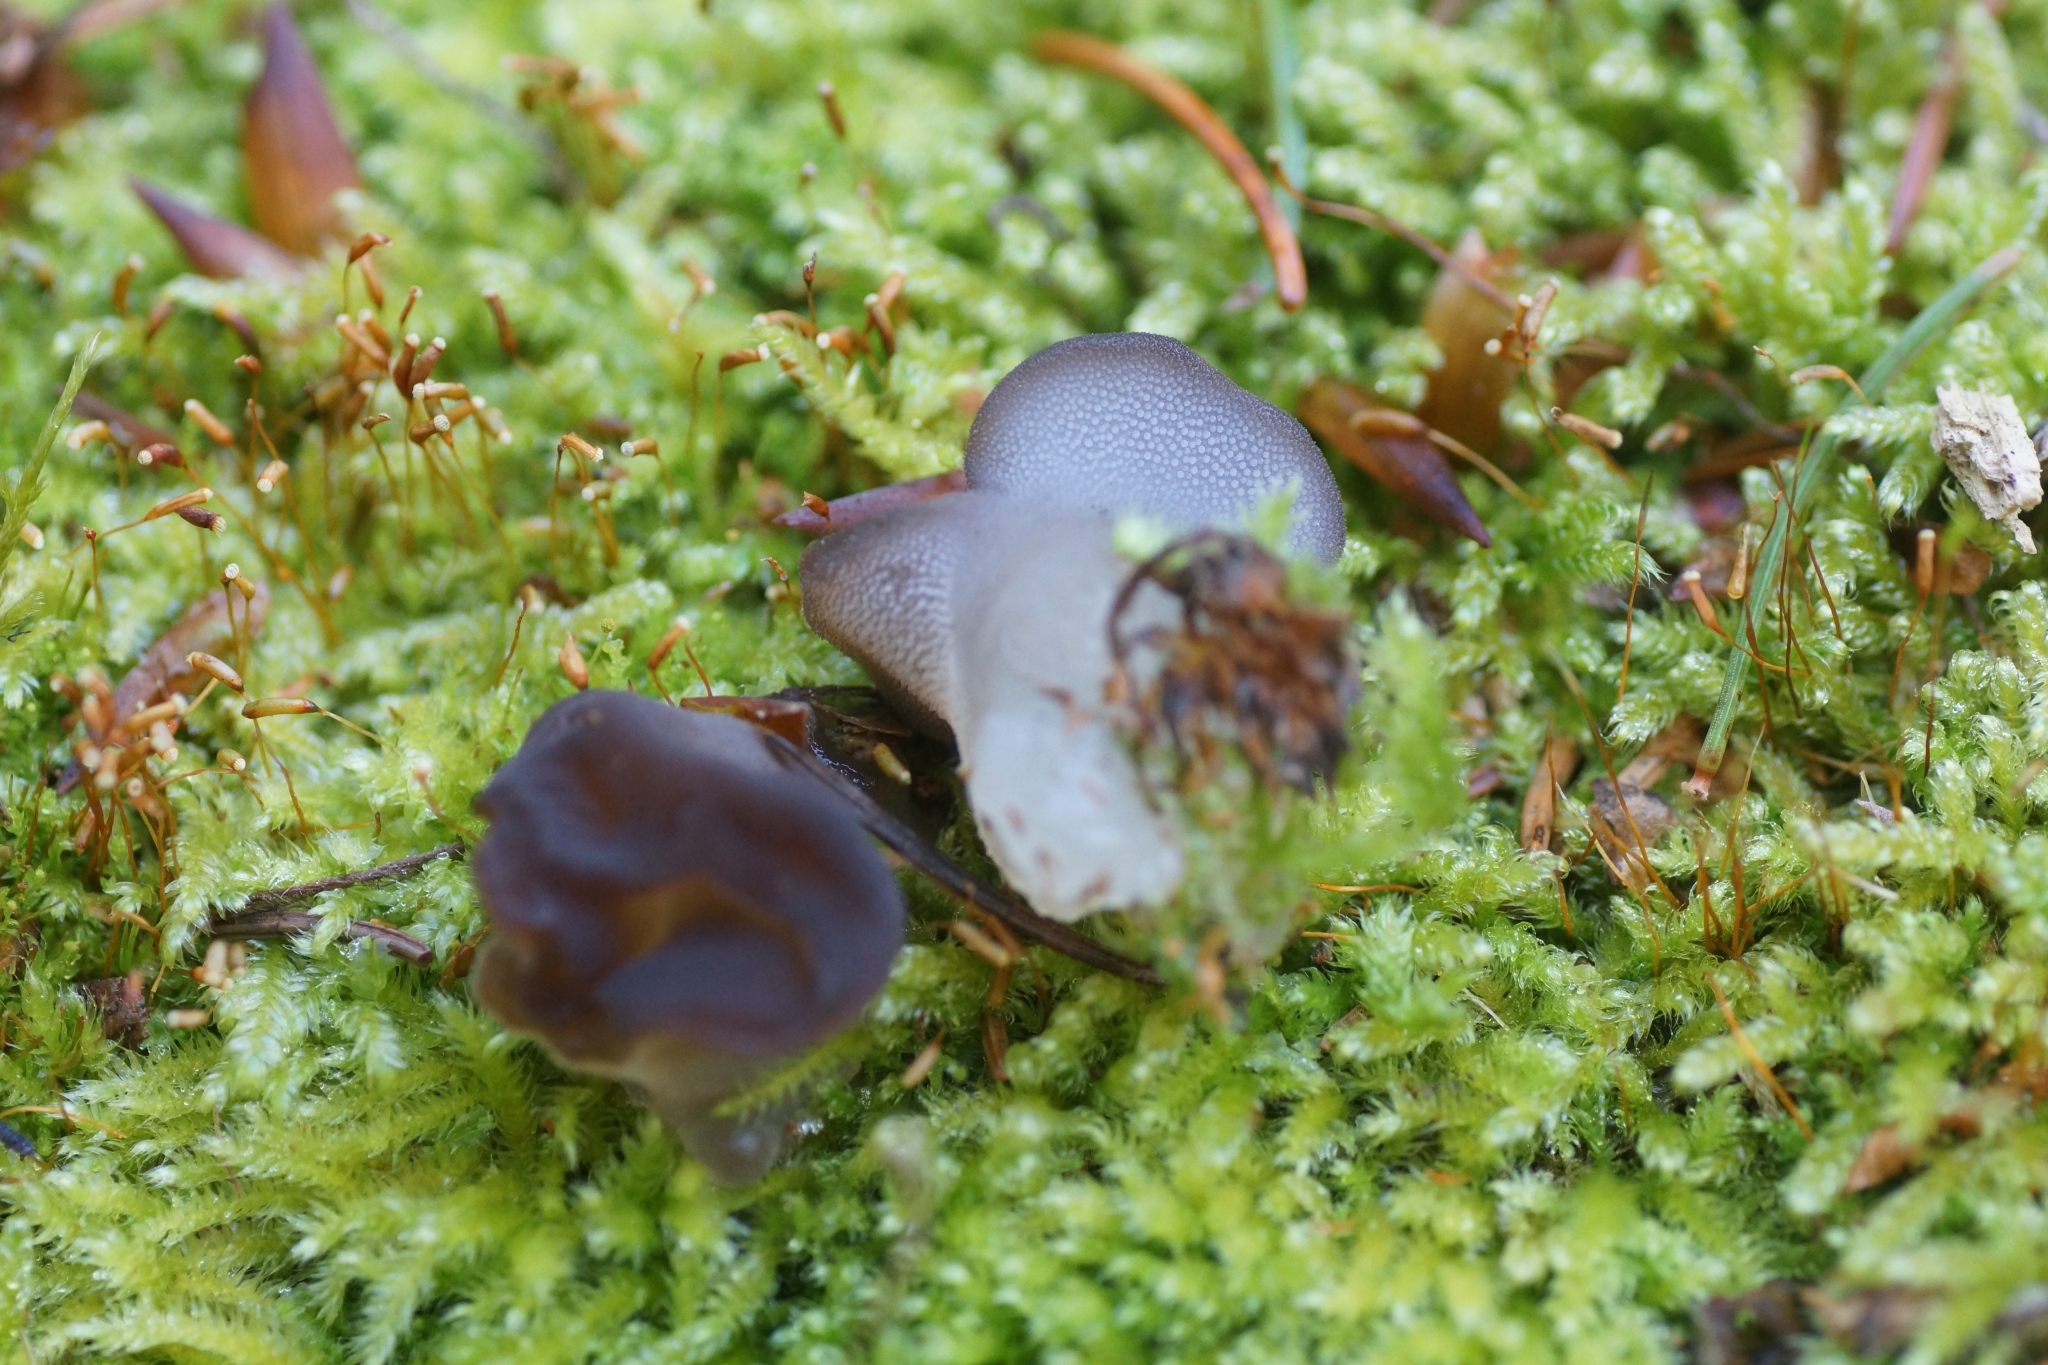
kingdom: Fungi
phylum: Basidiomycota
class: Agaricomycetes
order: Auriculariales
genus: Pseudohydnum
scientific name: Pseudohydnum gelatinosum
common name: Jelly tongue
